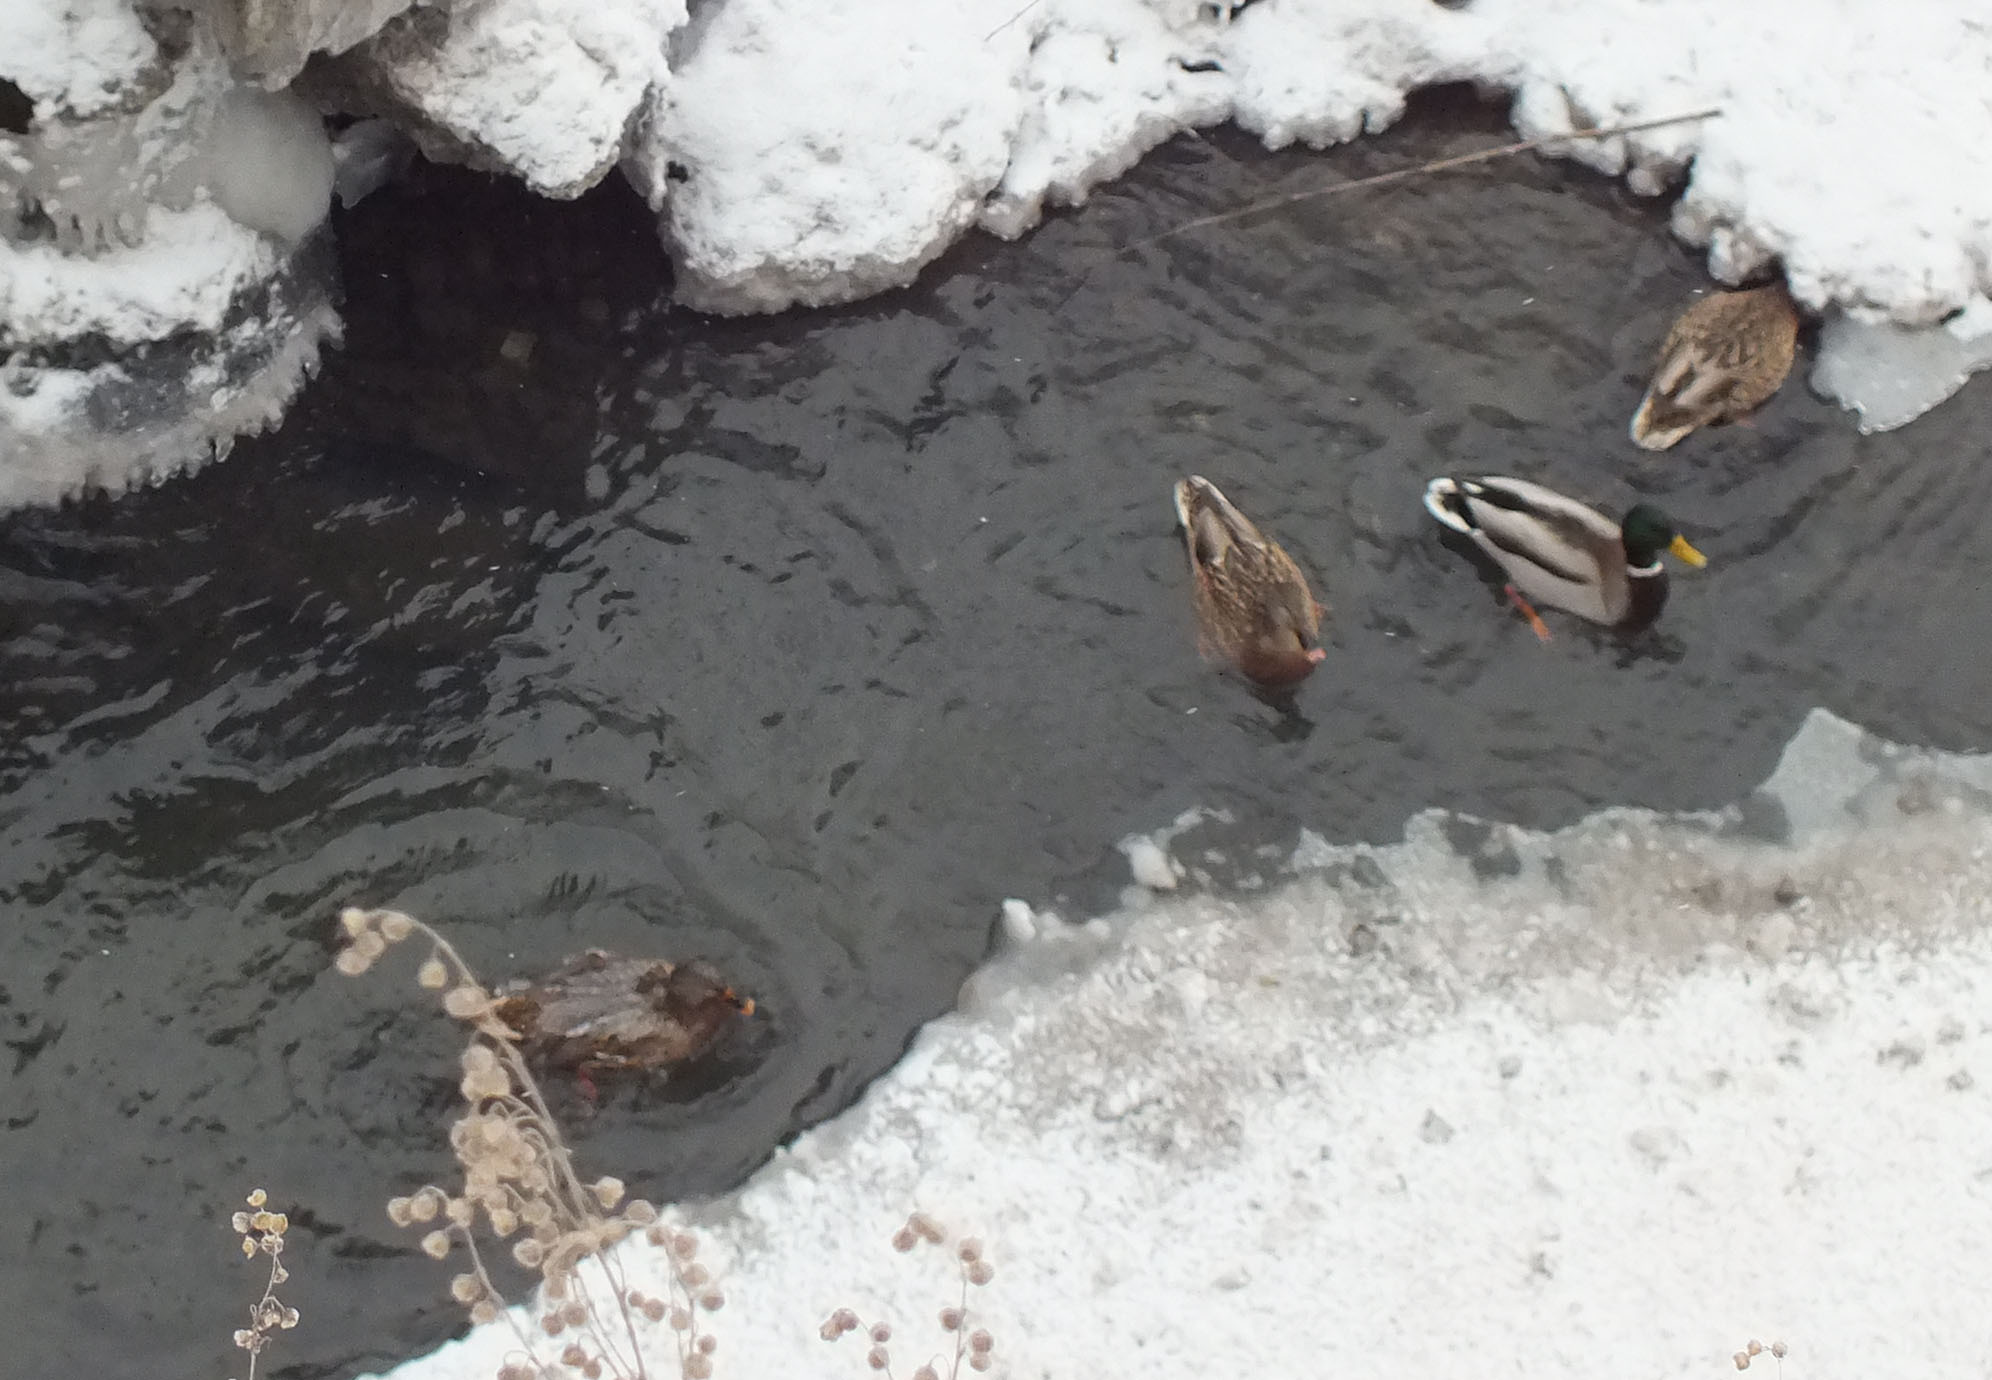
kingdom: Animalia
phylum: Chordata
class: Aves
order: Anseriformes
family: Anatidae
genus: Anas
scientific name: Anas platyrhynchos
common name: Mallard
